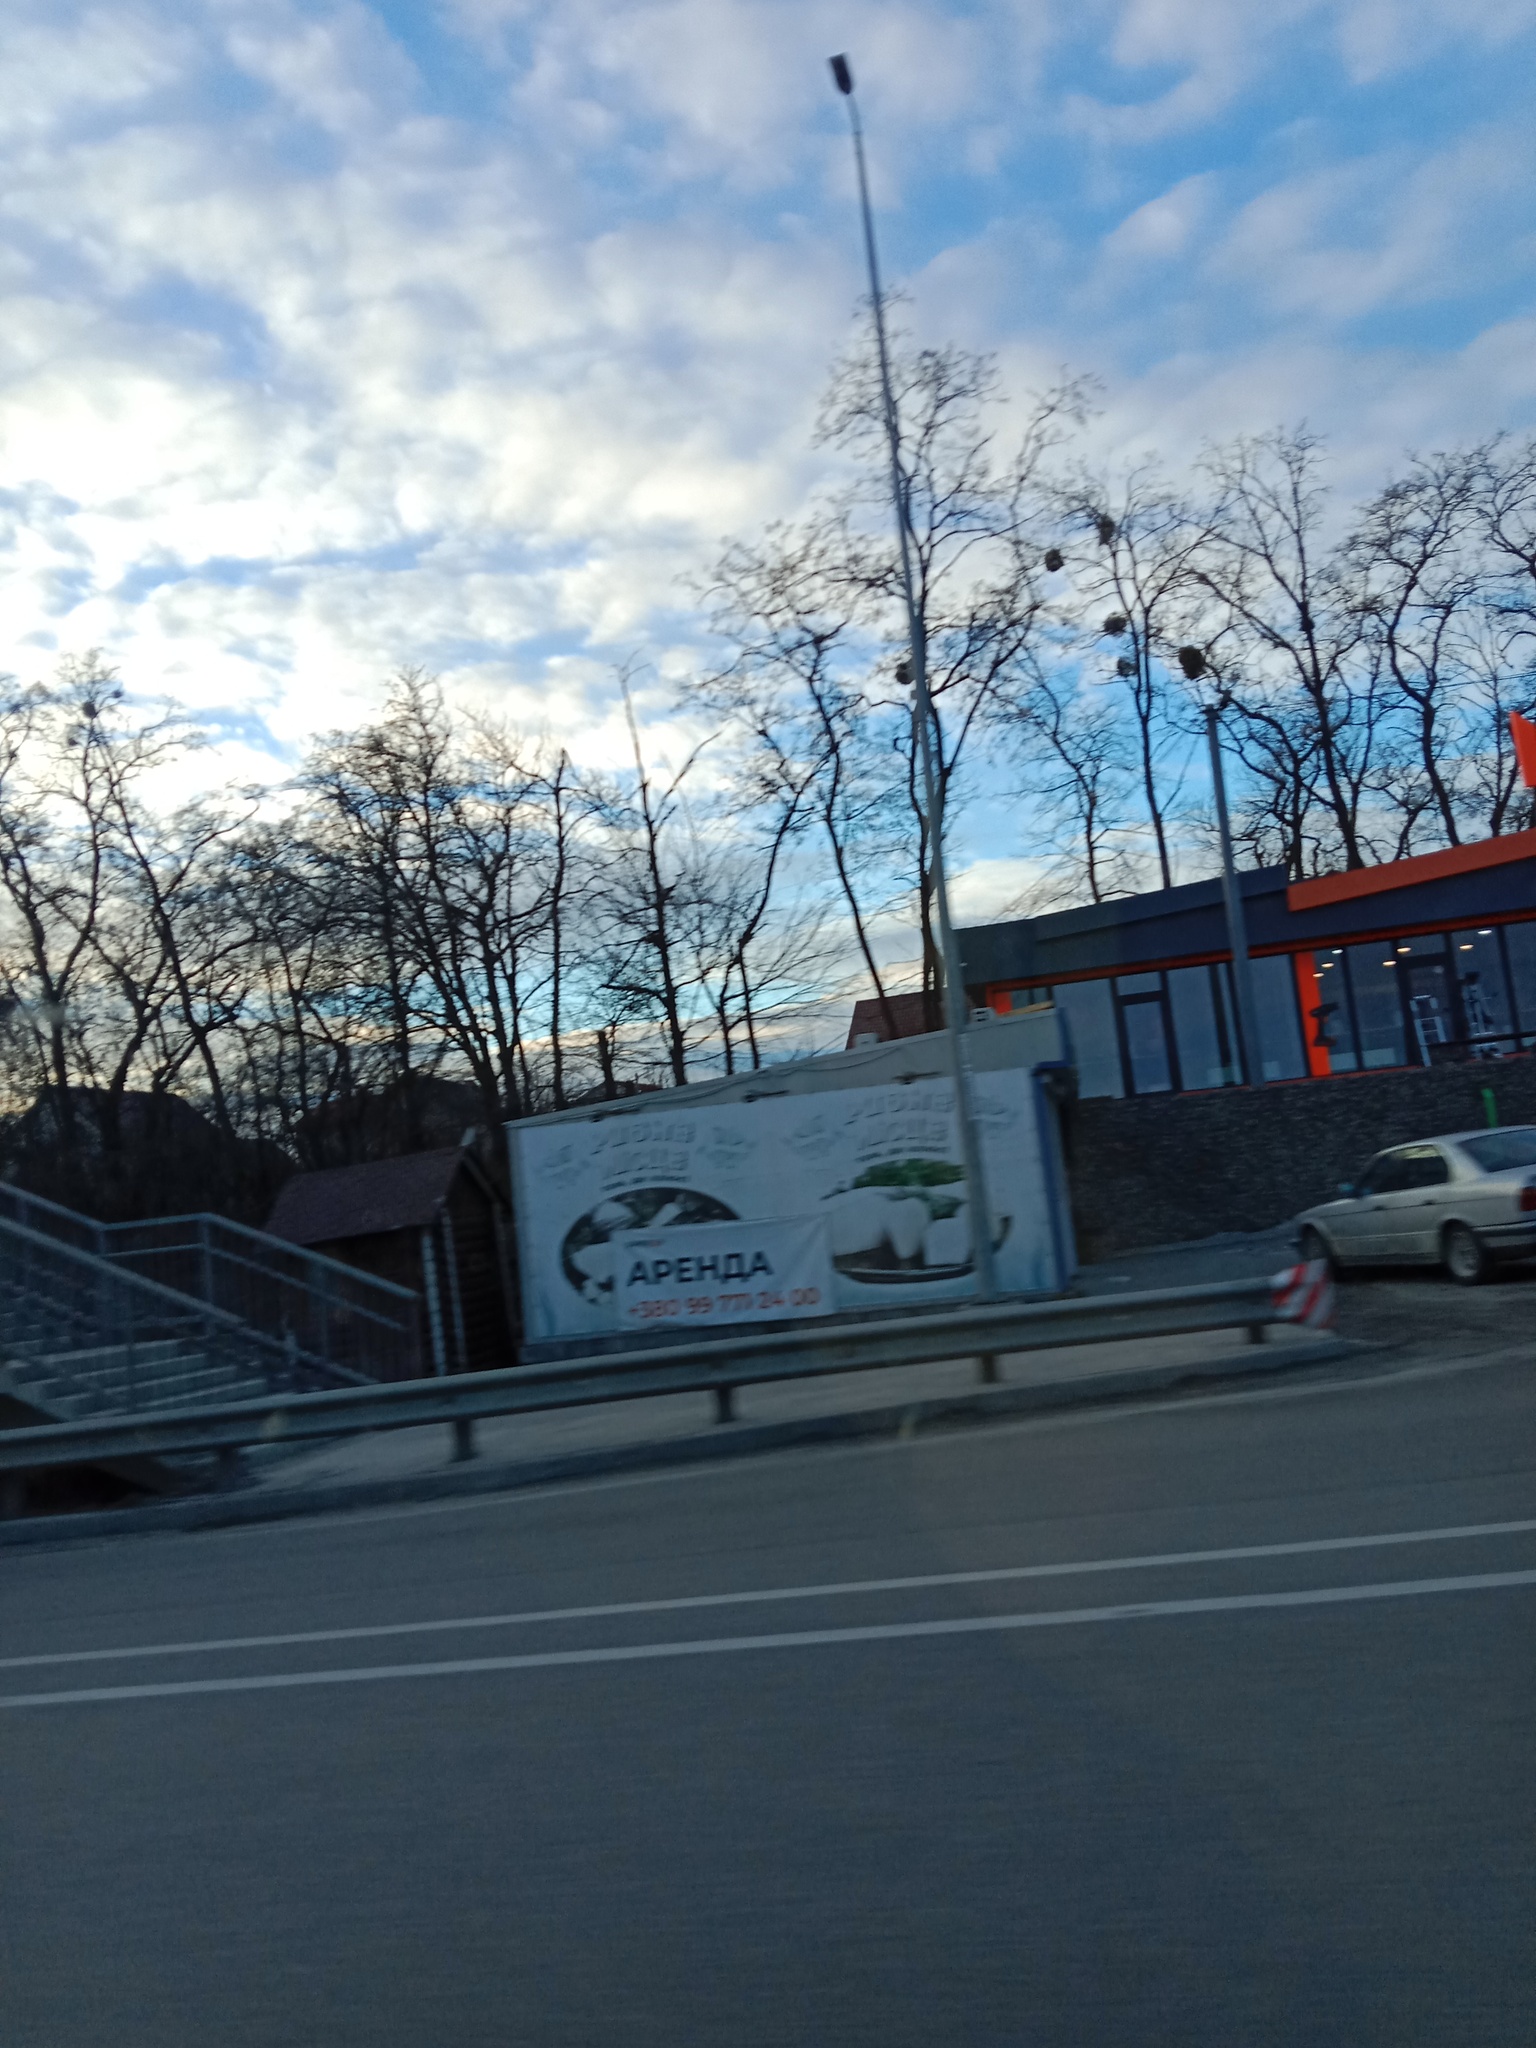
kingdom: Plantae
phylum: Tracheophyta
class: Magnoliopsida
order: Santalales
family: Viscaceae
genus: Viscum
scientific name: Viscum album
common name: Mistletoe
